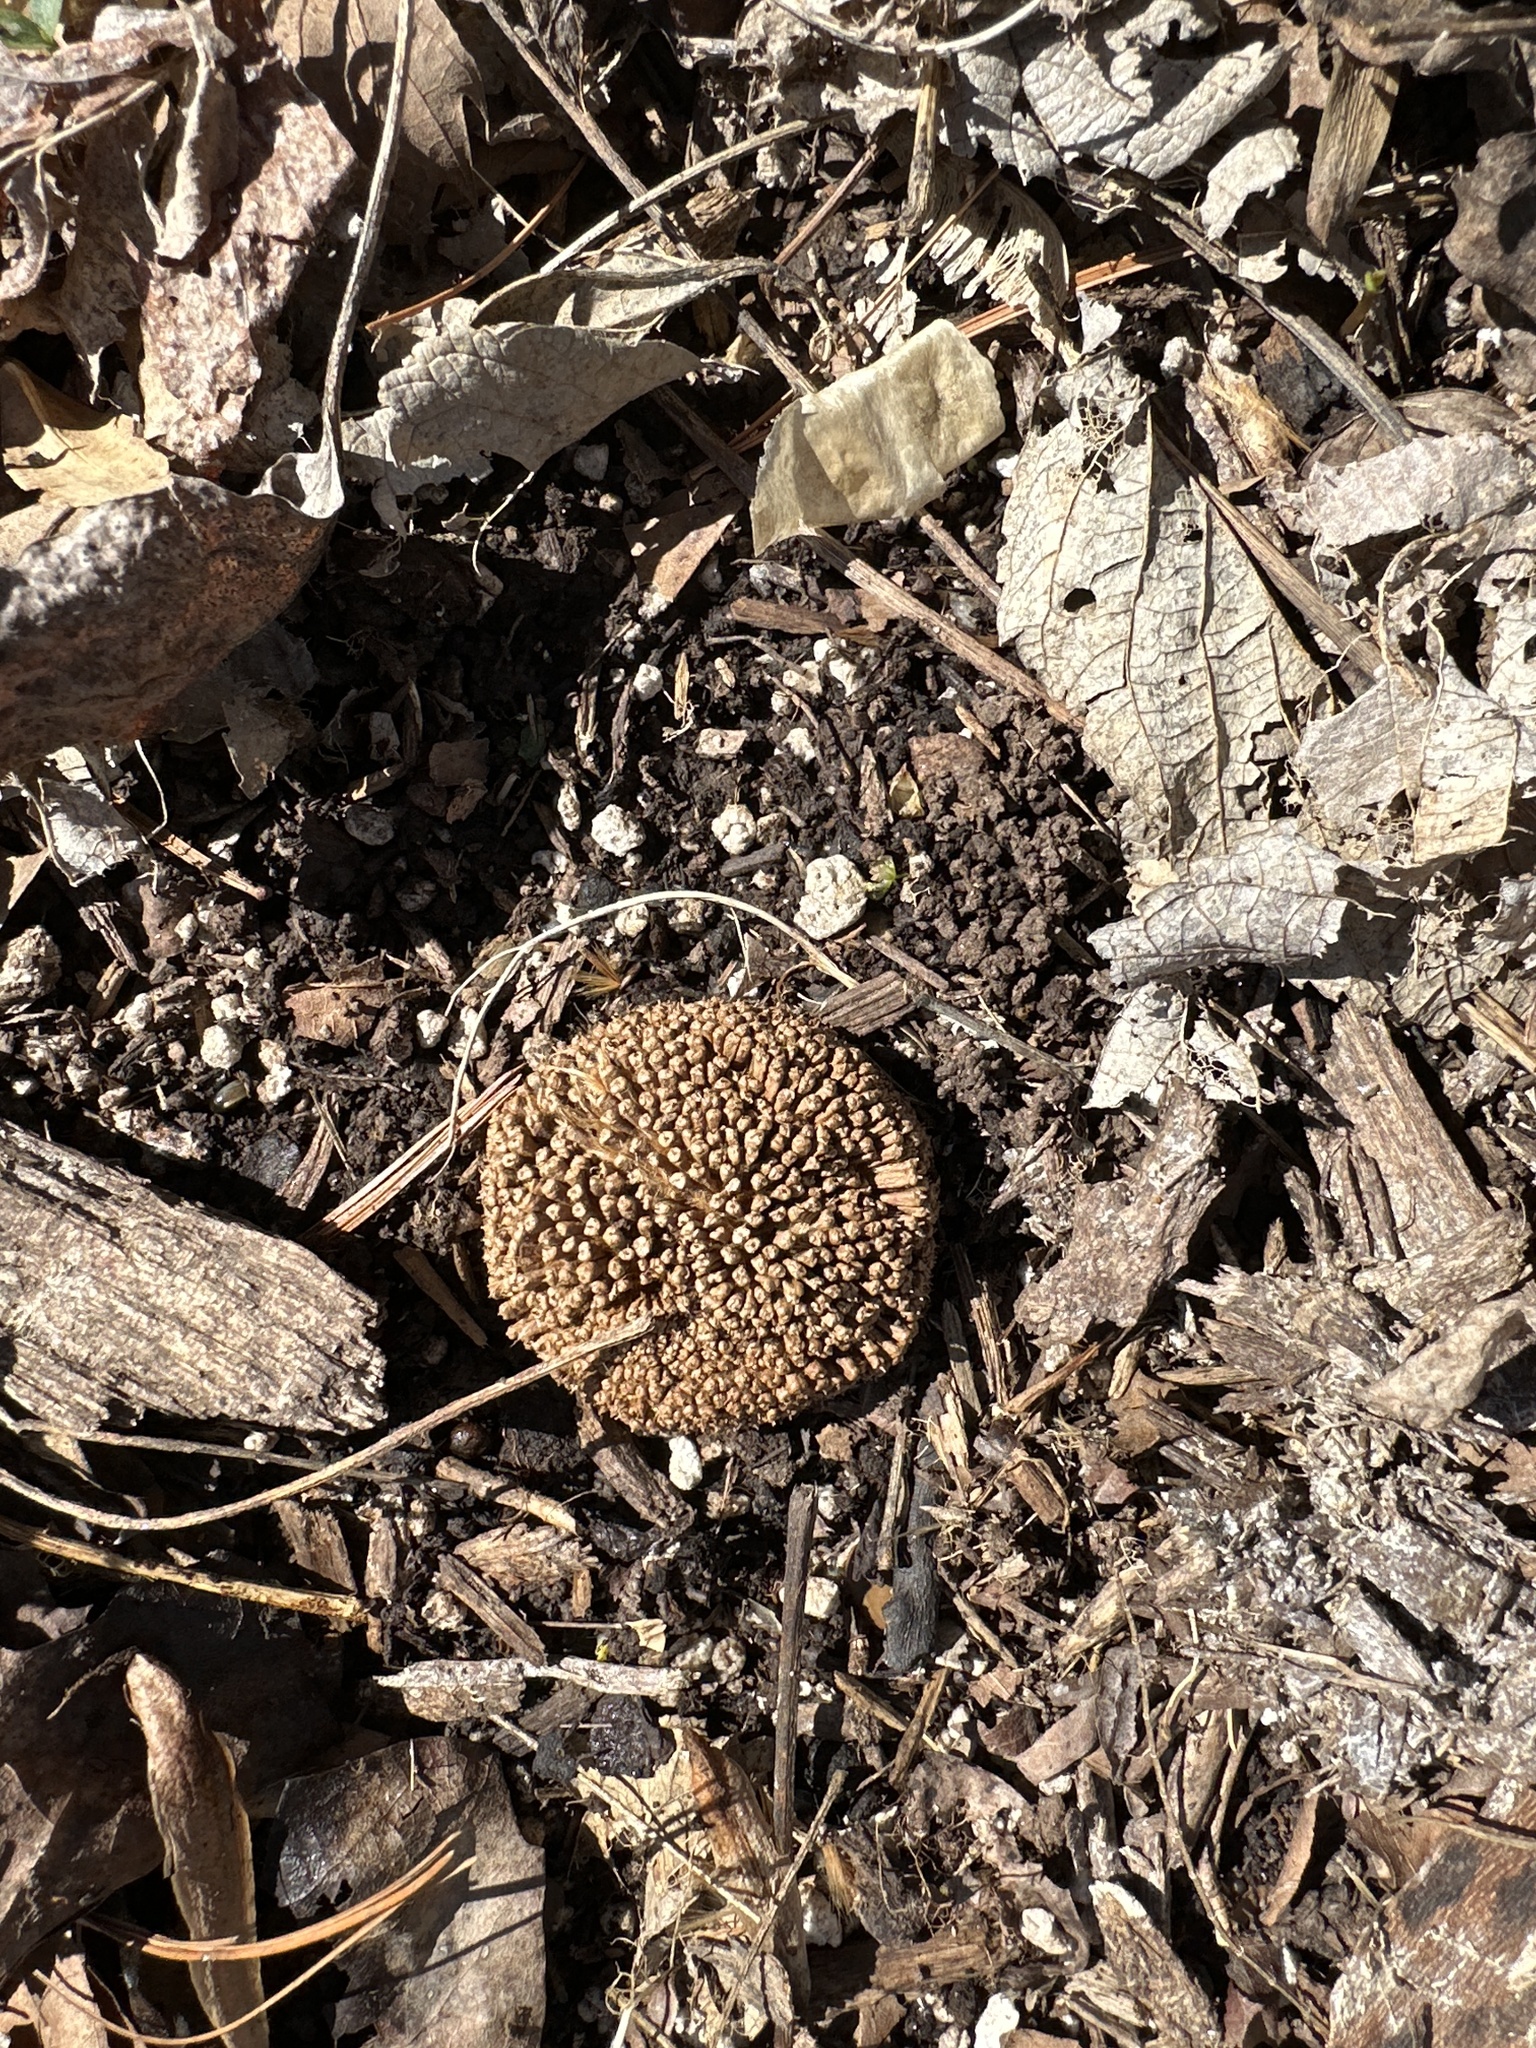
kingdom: Plantae
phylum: Tracheophyta
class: Magnoliopsida
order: Proteales
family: Platanaceae
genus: Platanus
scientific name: Platanus occidentalis
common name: American sycamore
